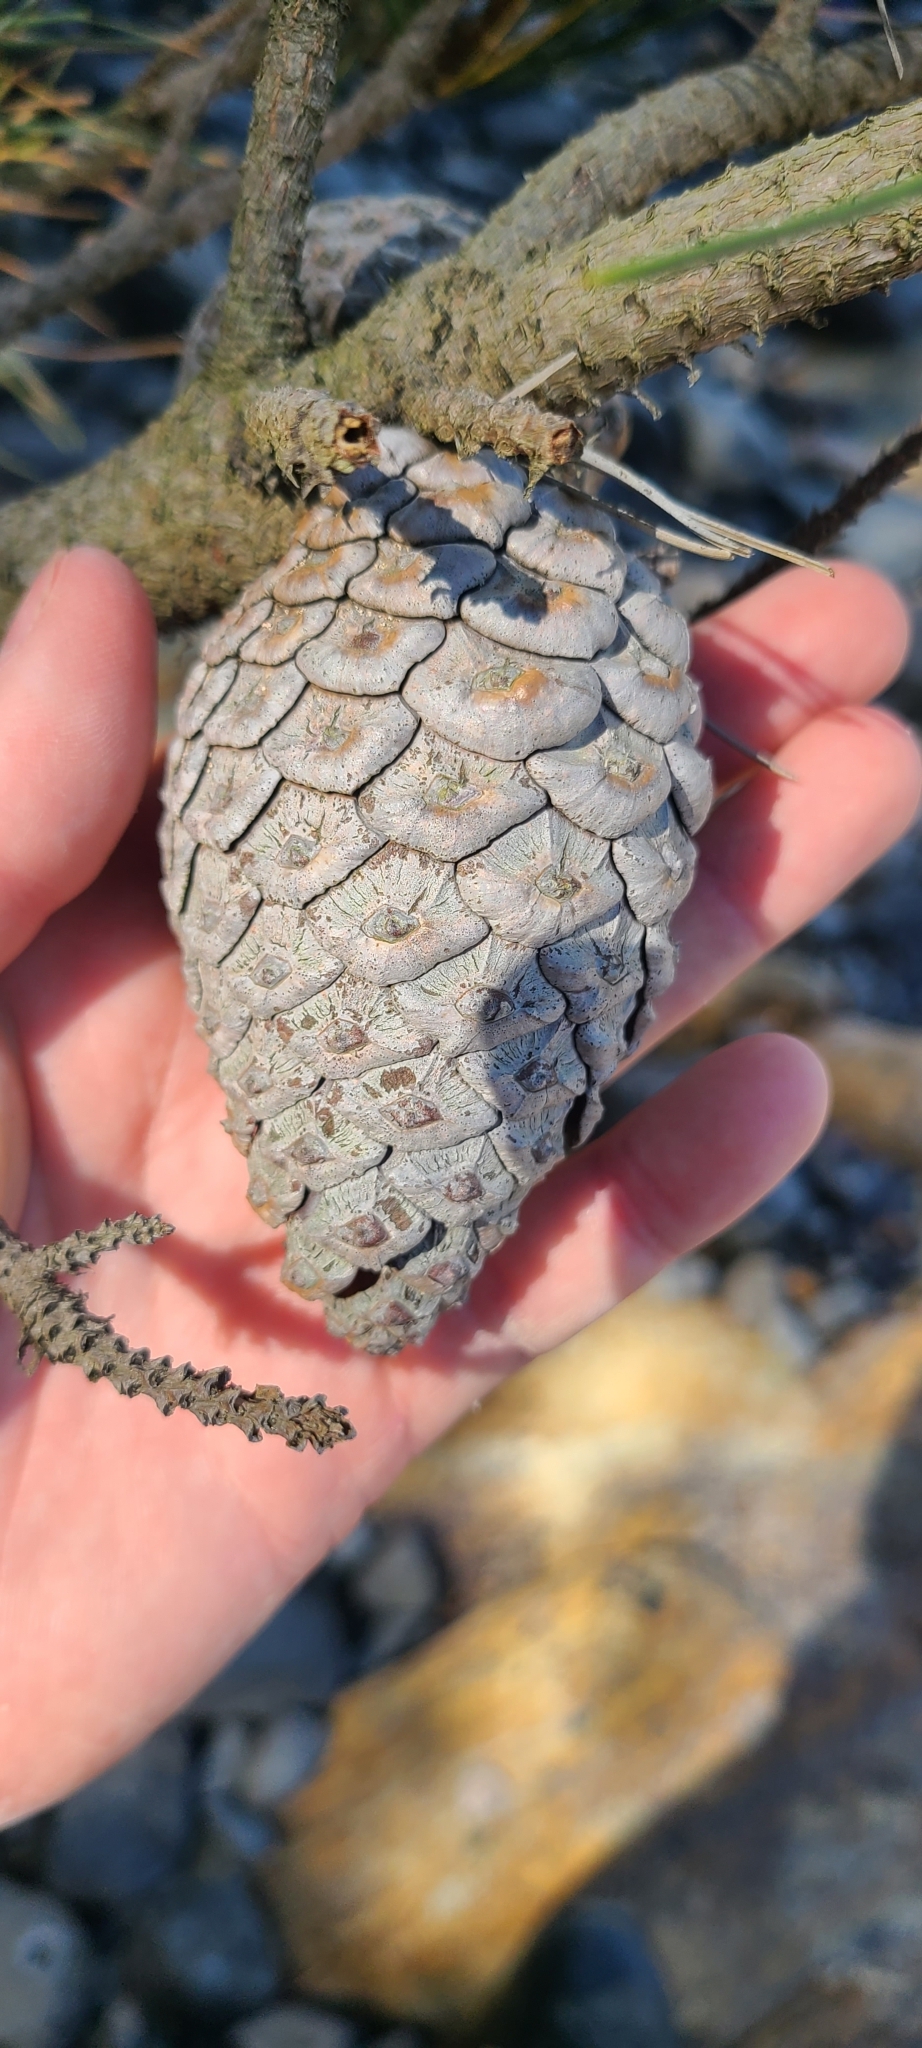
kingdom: Plantae
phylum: Tracheophyta
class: Pinopsida
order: Pinales
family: Pinaceae
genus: Pinus
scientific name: Pinus radiata
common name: Monterey pine
